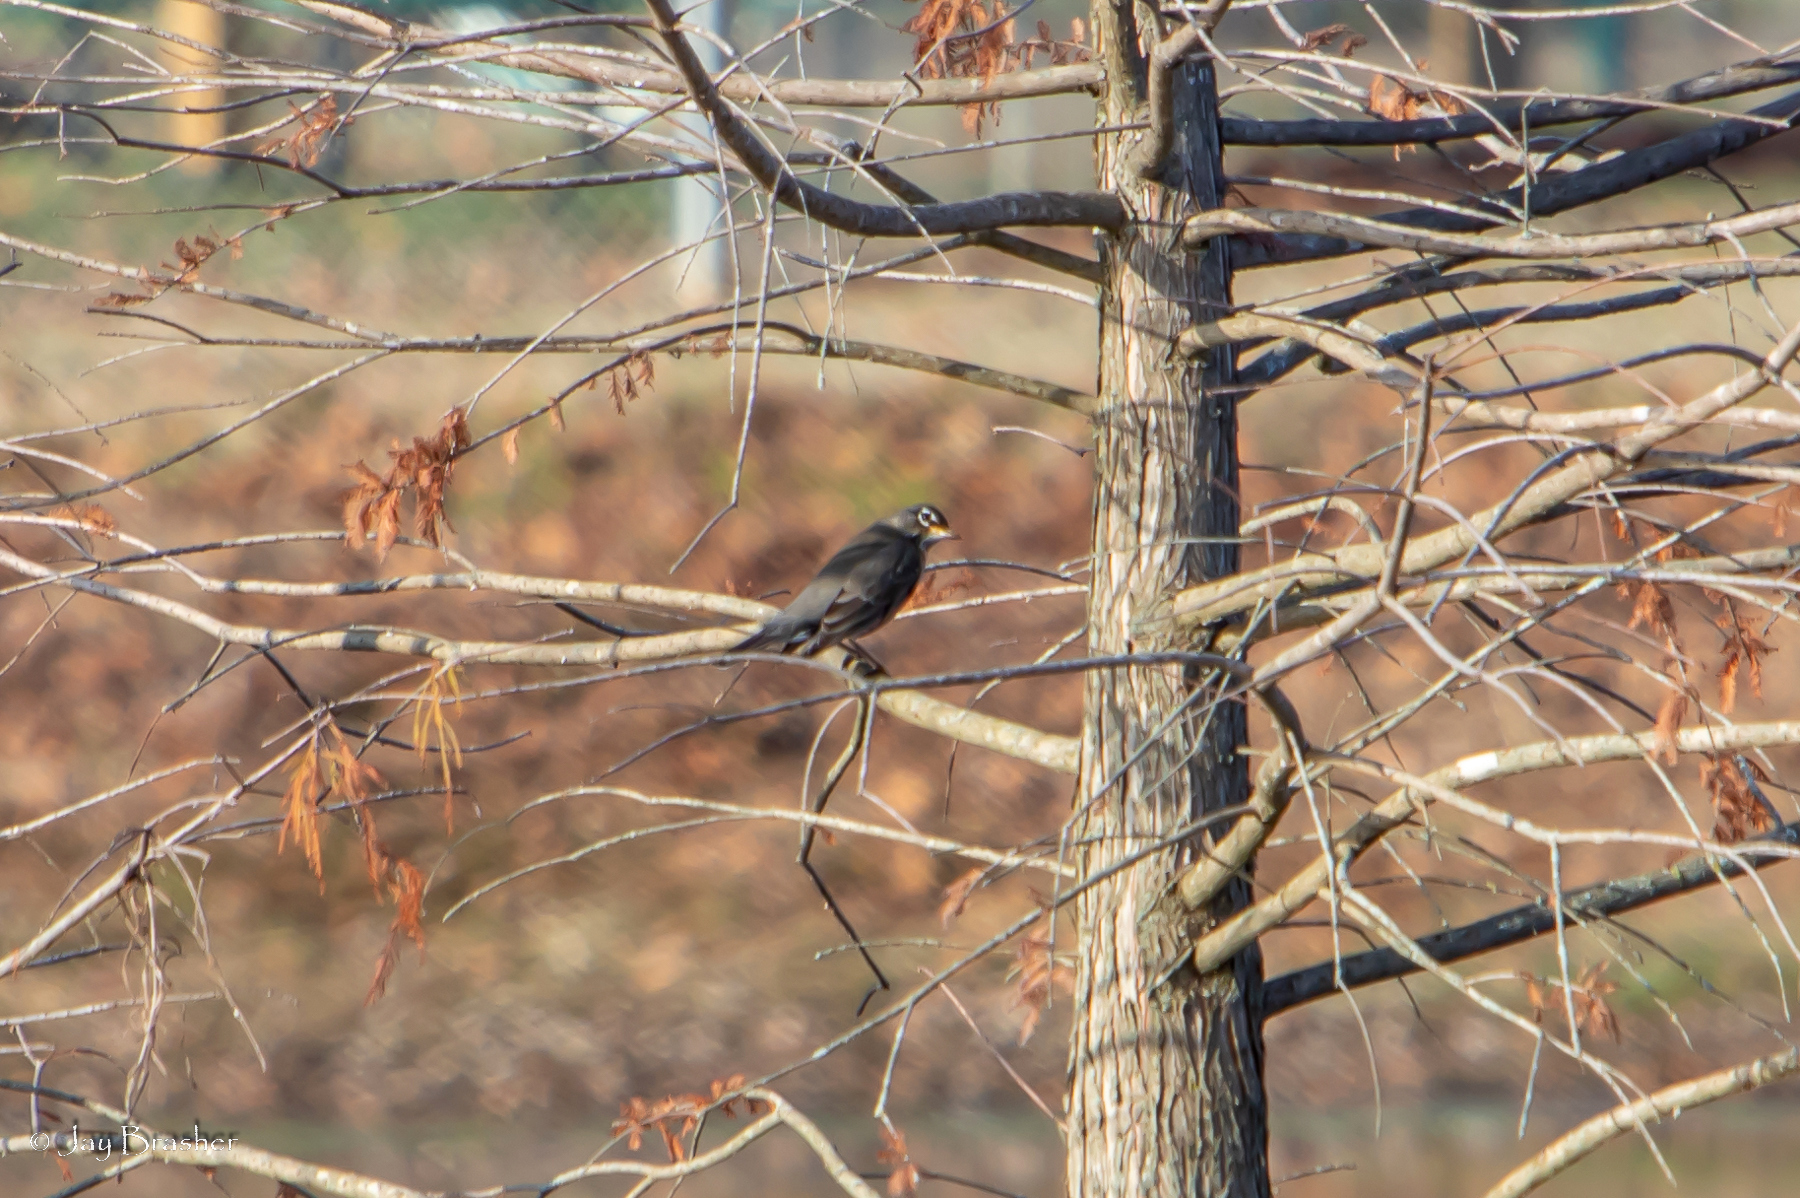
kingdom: Animalia
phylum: Chordata
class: Aves
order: Passeriformes
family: Turdidae
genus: Turdus
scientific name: Turdus migratorius
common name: American robin
